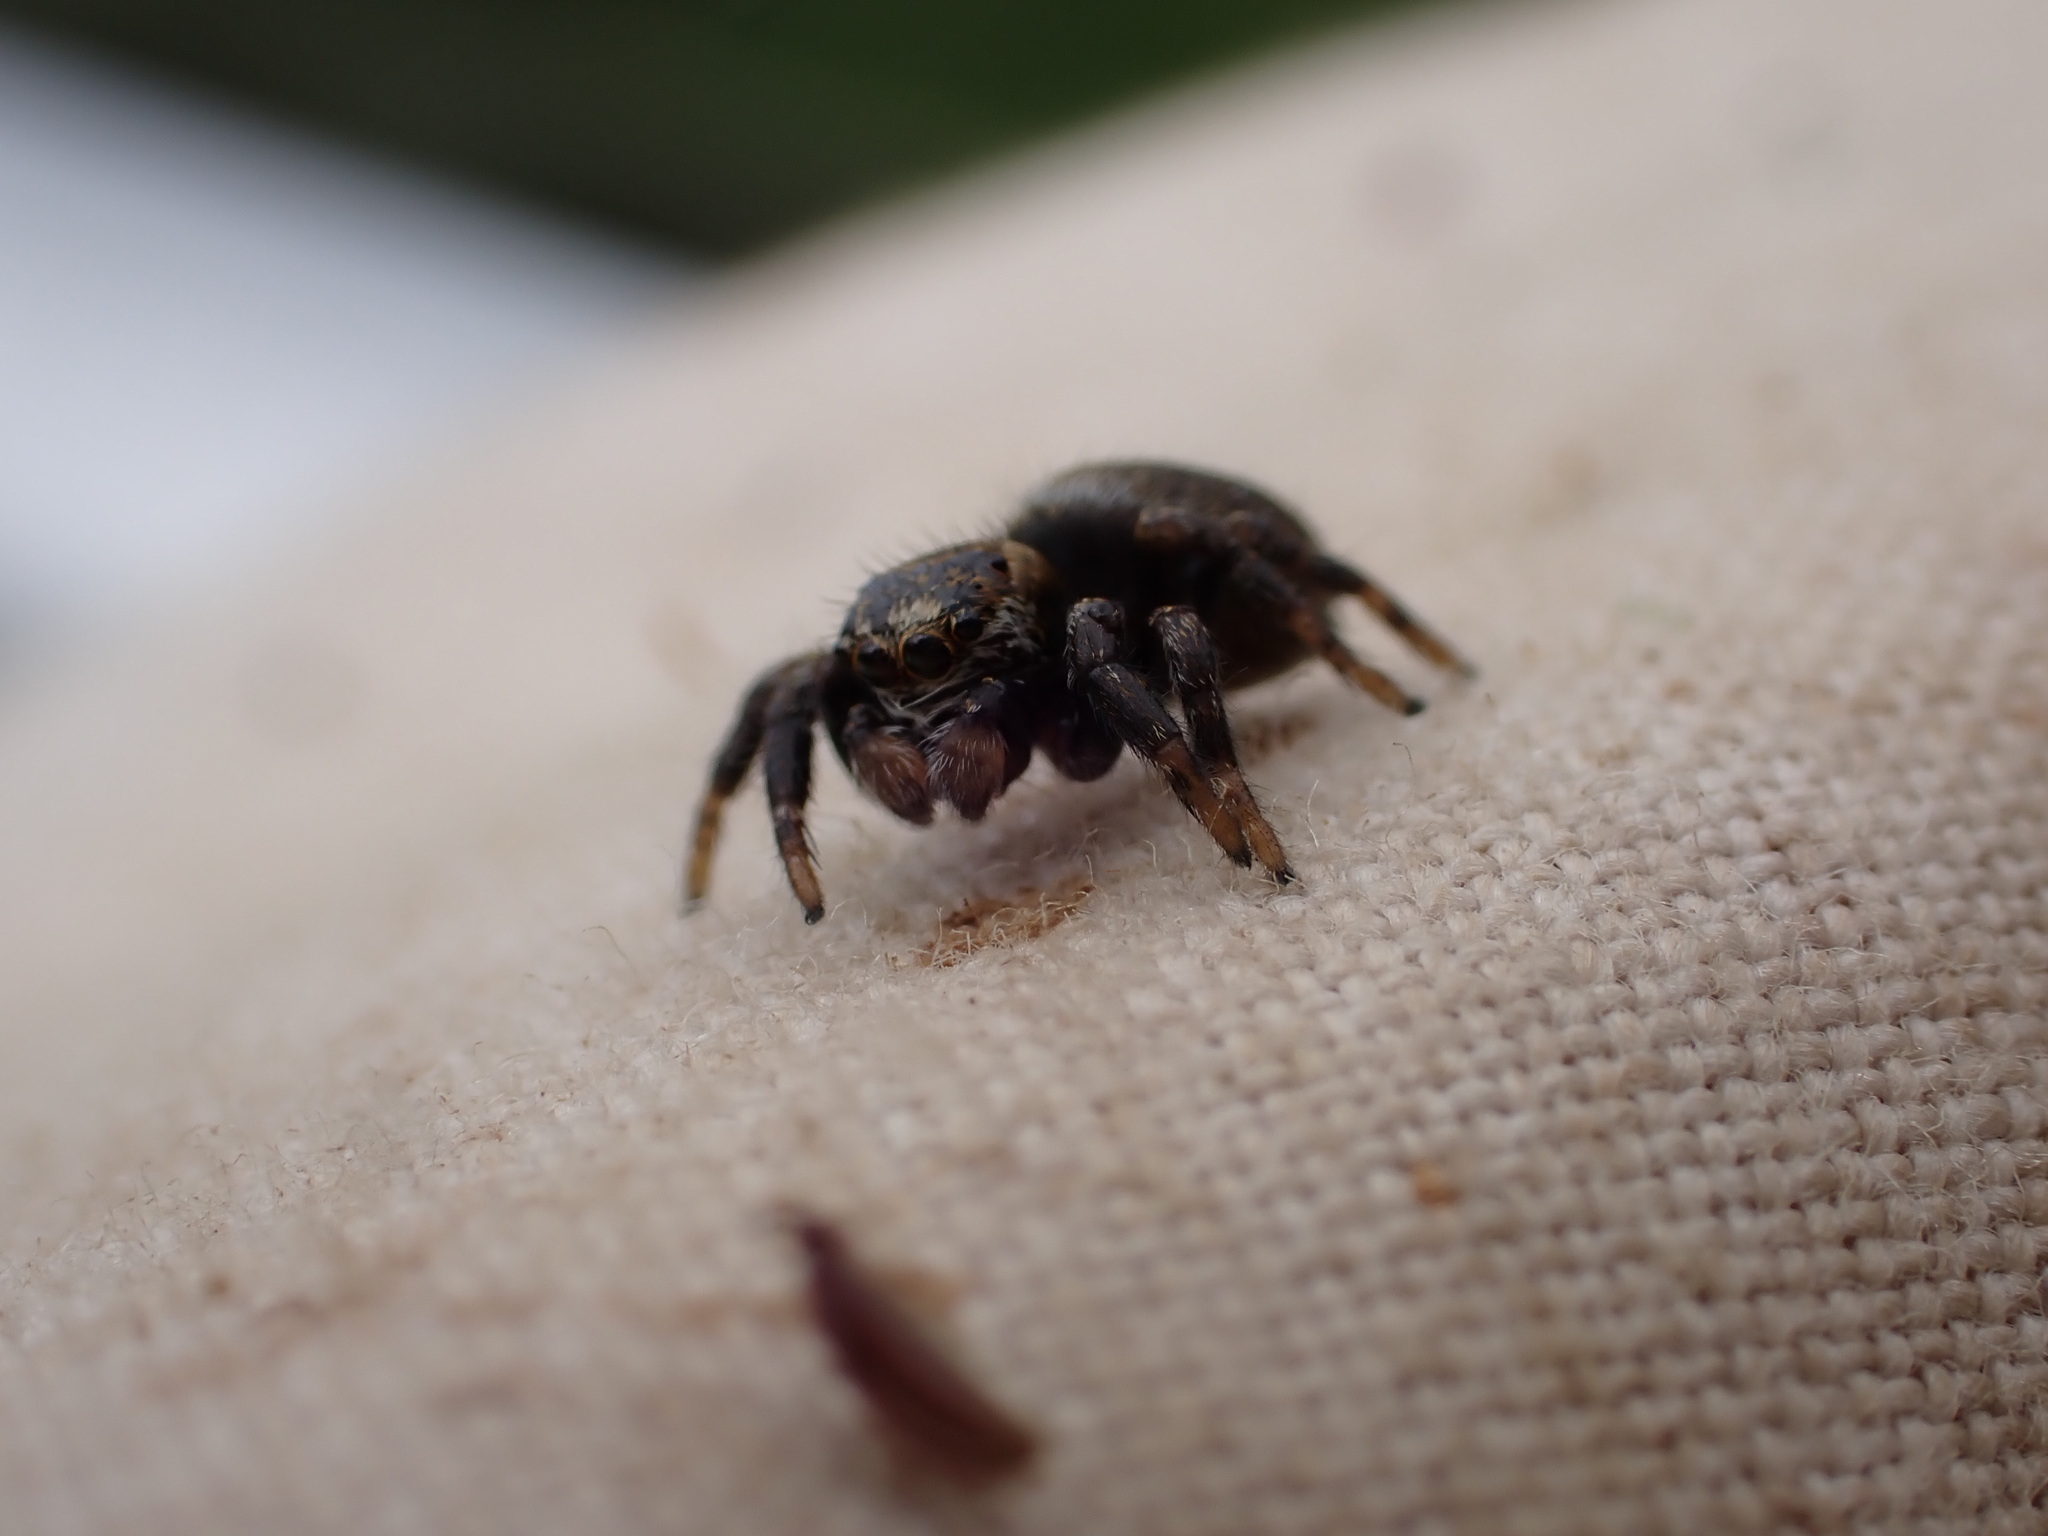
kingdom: Animalia
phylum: Arthropoda
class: Arachnida
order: Araneae
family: Salticidae
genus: Evarcha
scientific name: Evarcha arcuata
